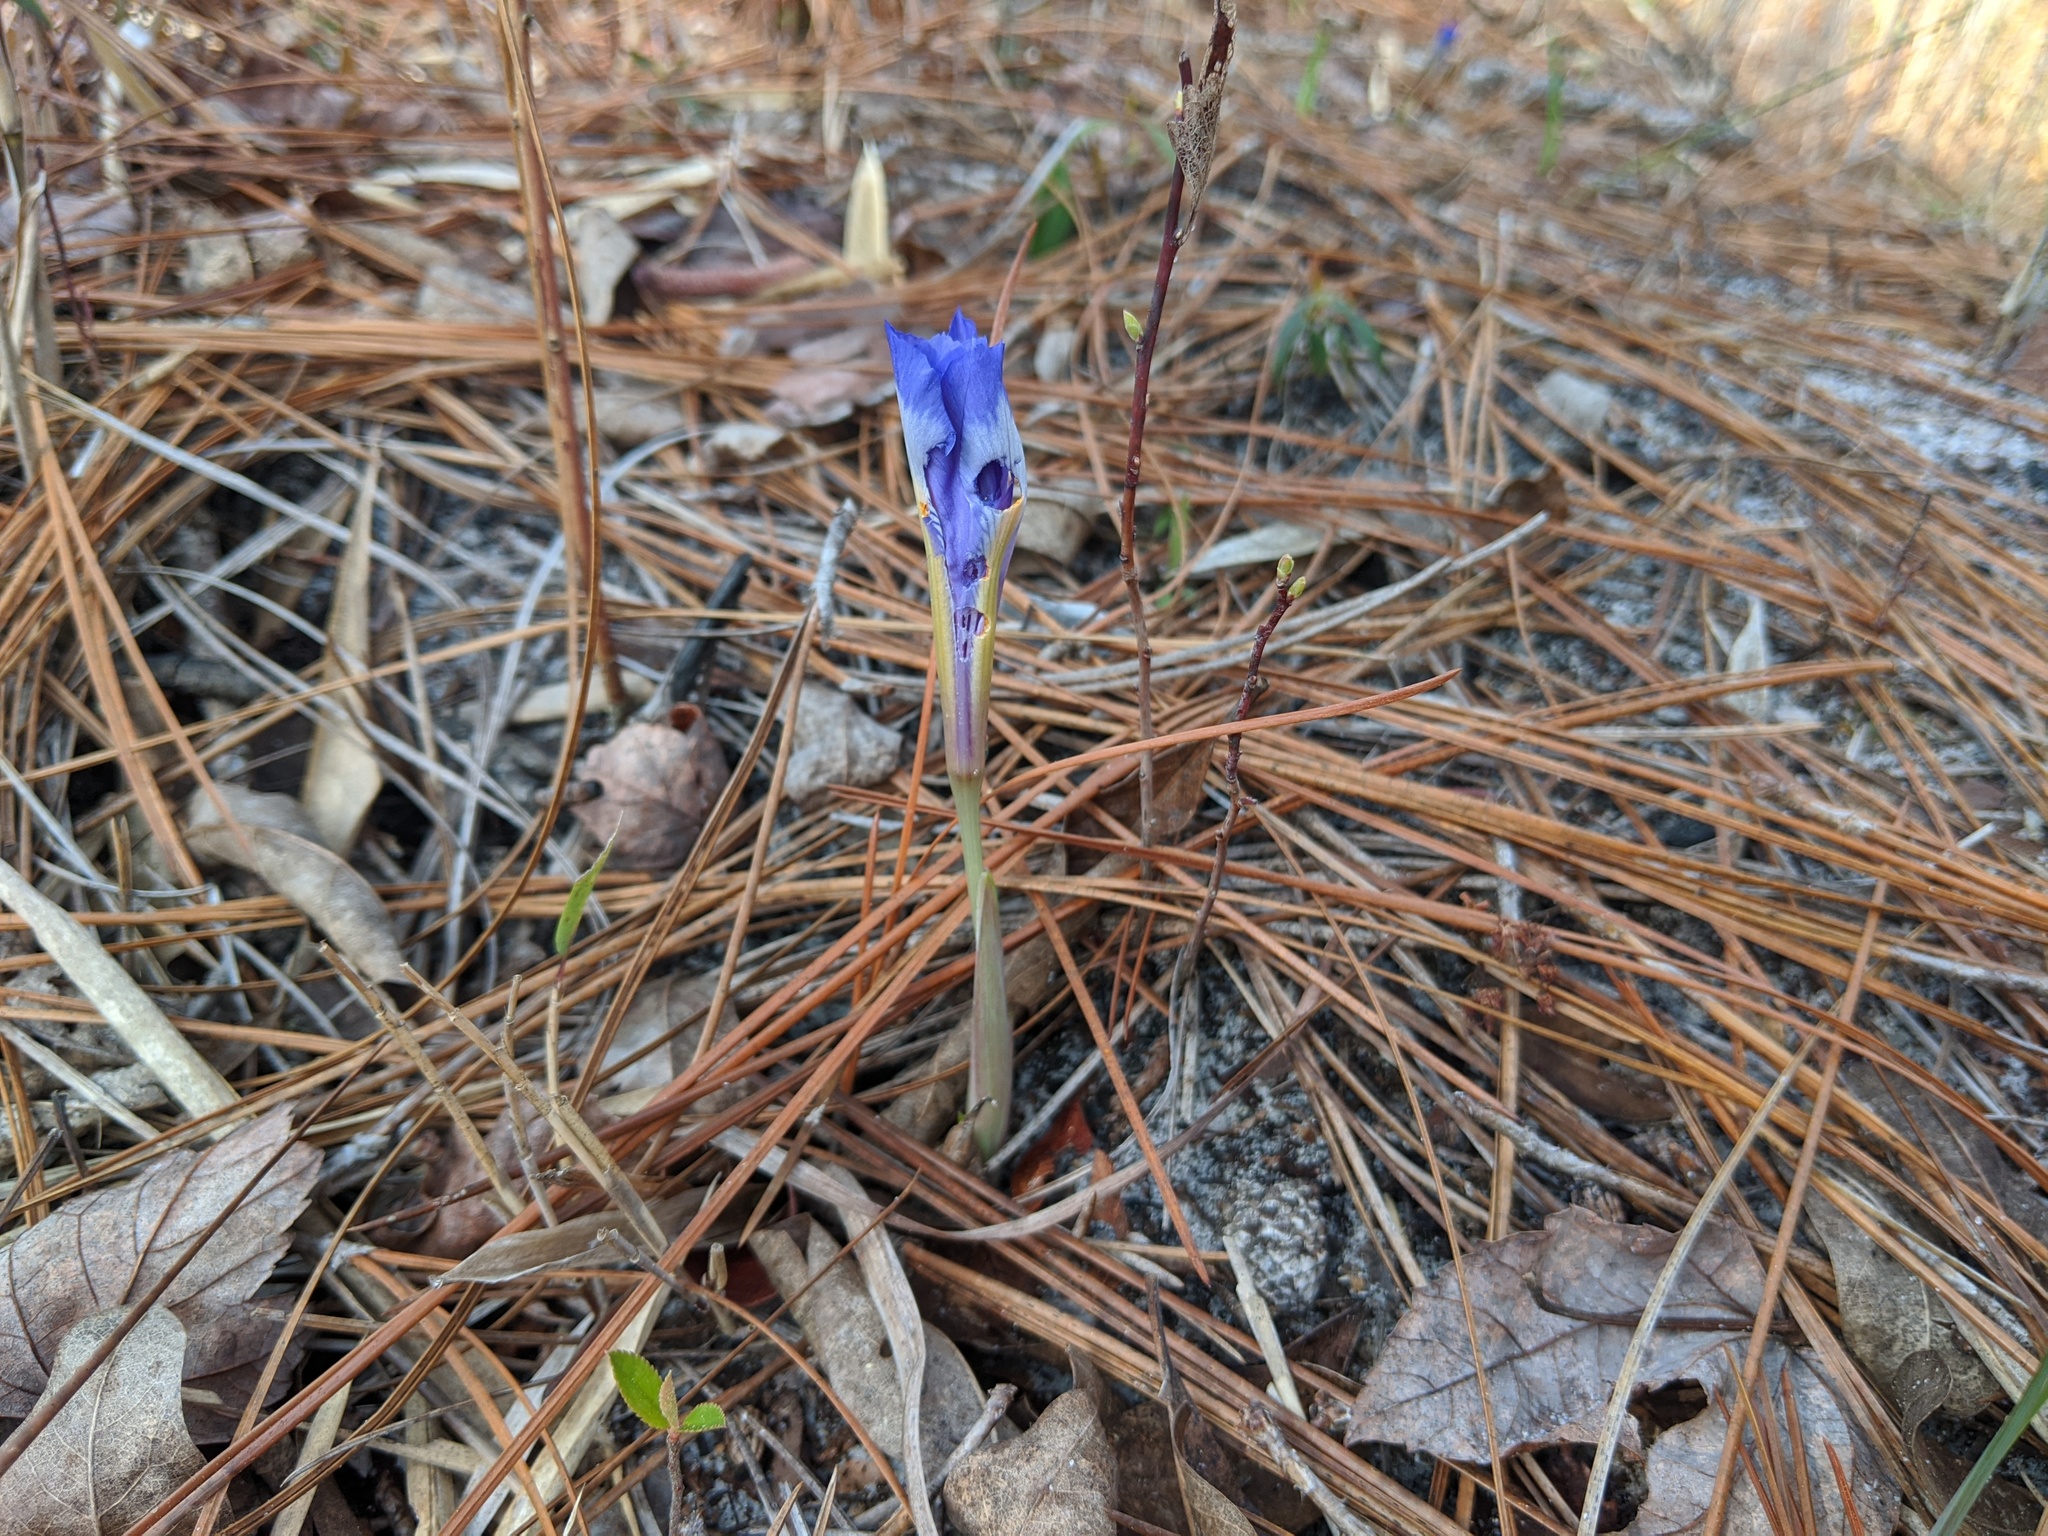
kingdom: Plantae
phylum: Tracheophyta
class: Liliopsida
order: Asparagales
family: Iridaceae
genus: Iris
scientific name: Iris verna
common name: Dwarf iris
